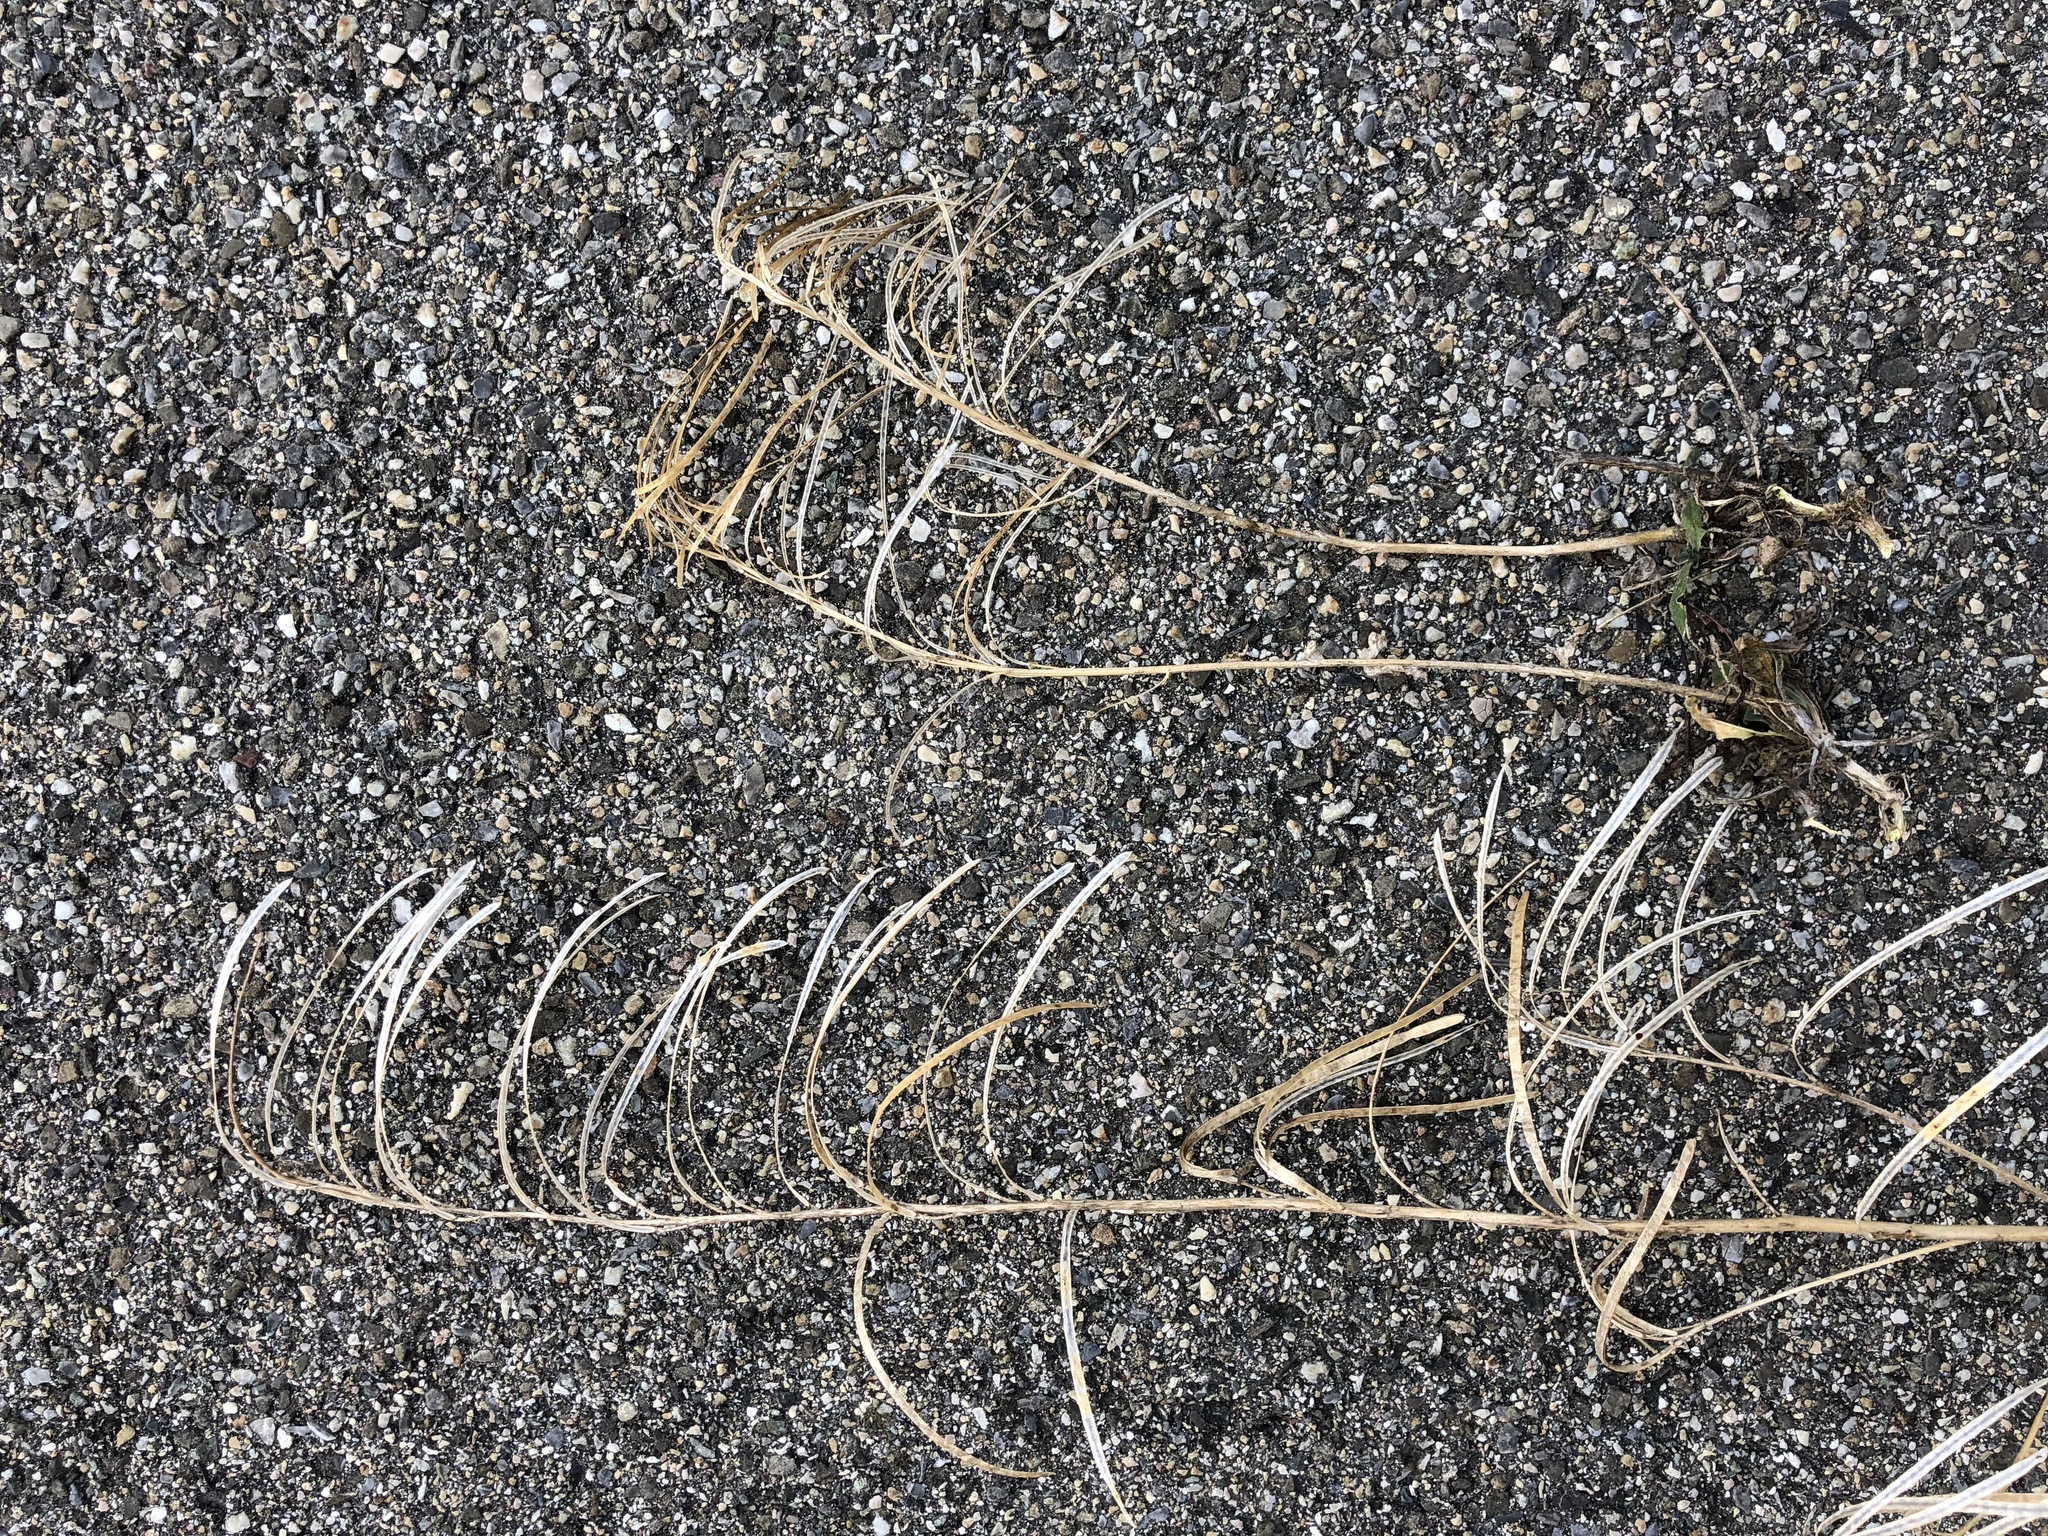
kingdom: Plantae
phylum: Tracheophyta
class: Magnoliopsida
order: Brassicales
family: Brassicaceae
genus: Pseudoturritis
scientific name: Pseudoturritis turrita
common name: Tower cress
